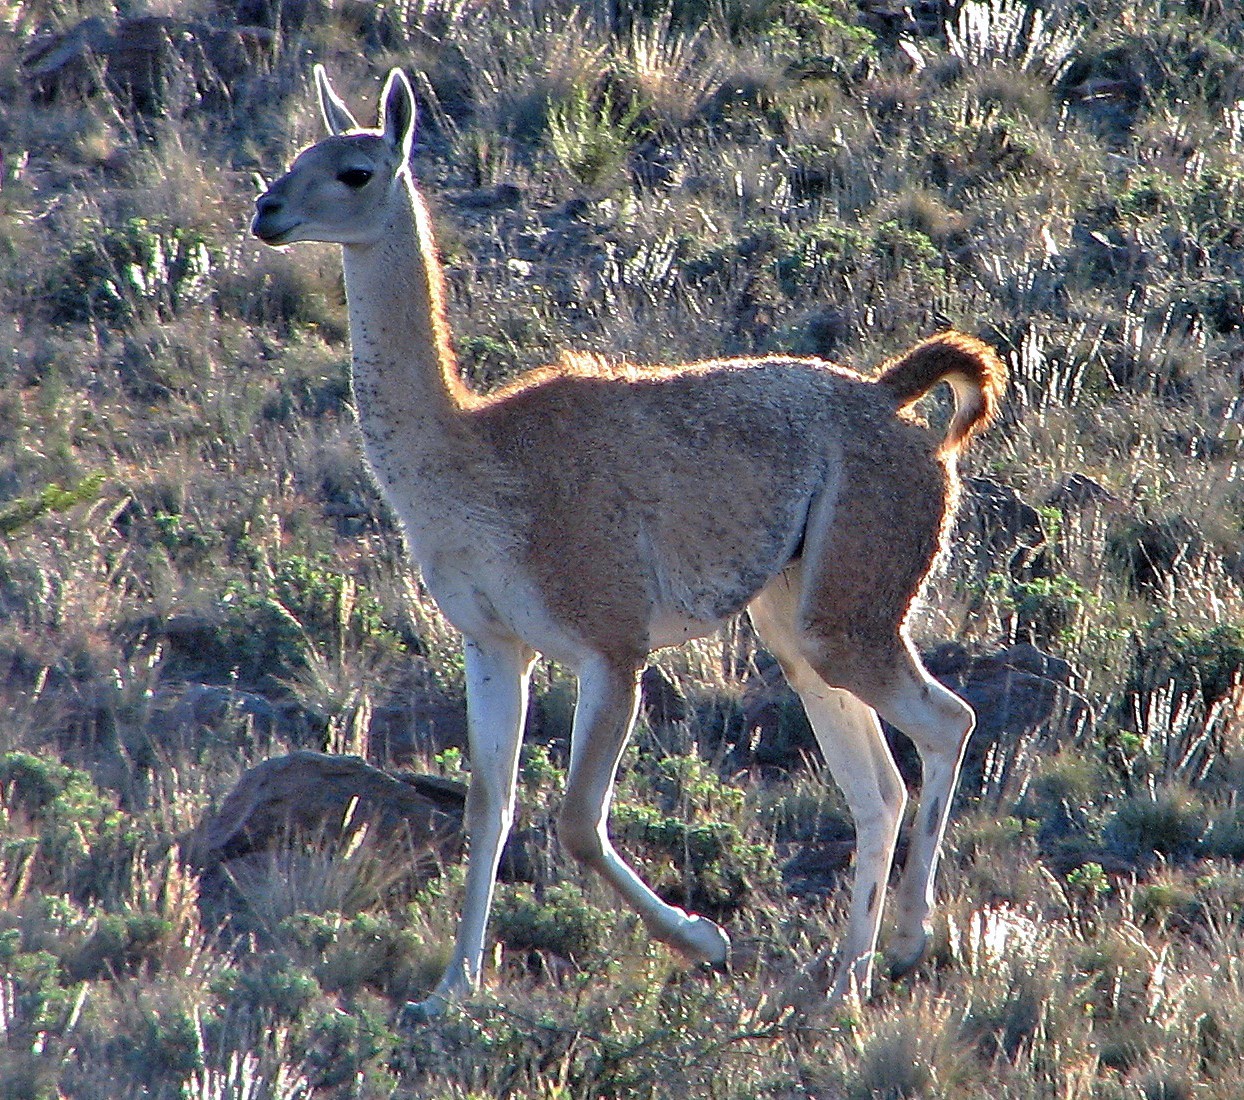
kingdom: Animalia
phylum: Chordata
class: Mammalia
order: Artiodactyla
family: Camelidae
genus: Lama
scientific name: Lama glama
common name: Llama
